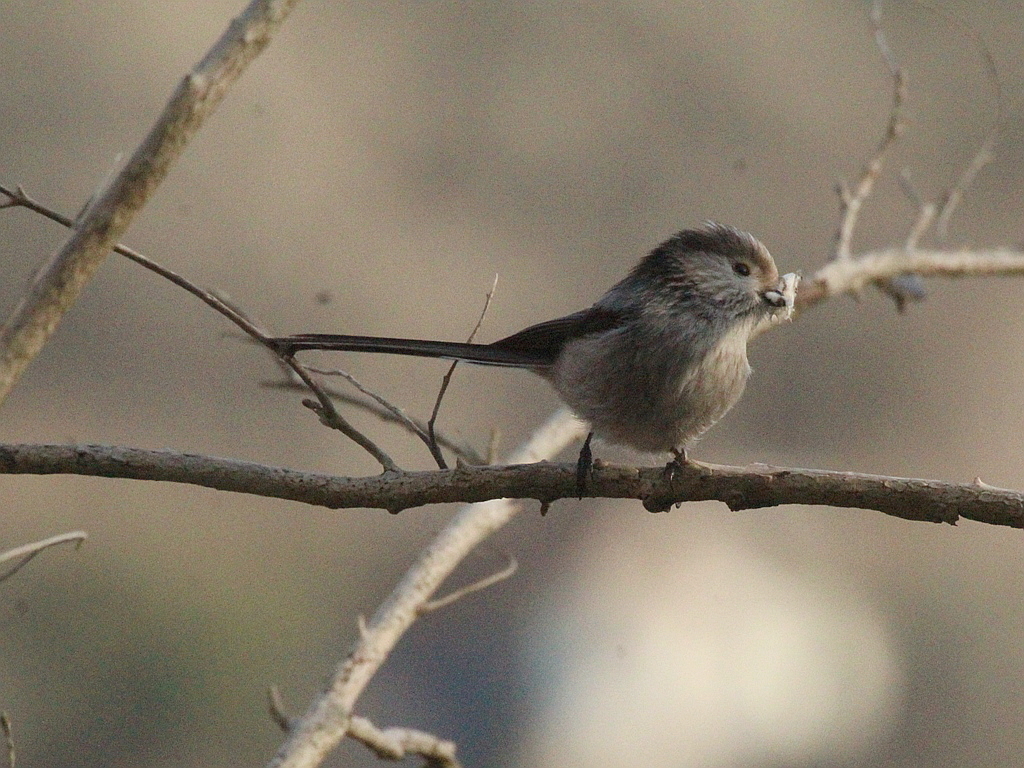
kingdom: Animalia
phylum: Chordata
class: Aves
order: Passeriformes
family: Aegithalidae
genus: Aegithalos
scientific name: Aegithalos caudatus
